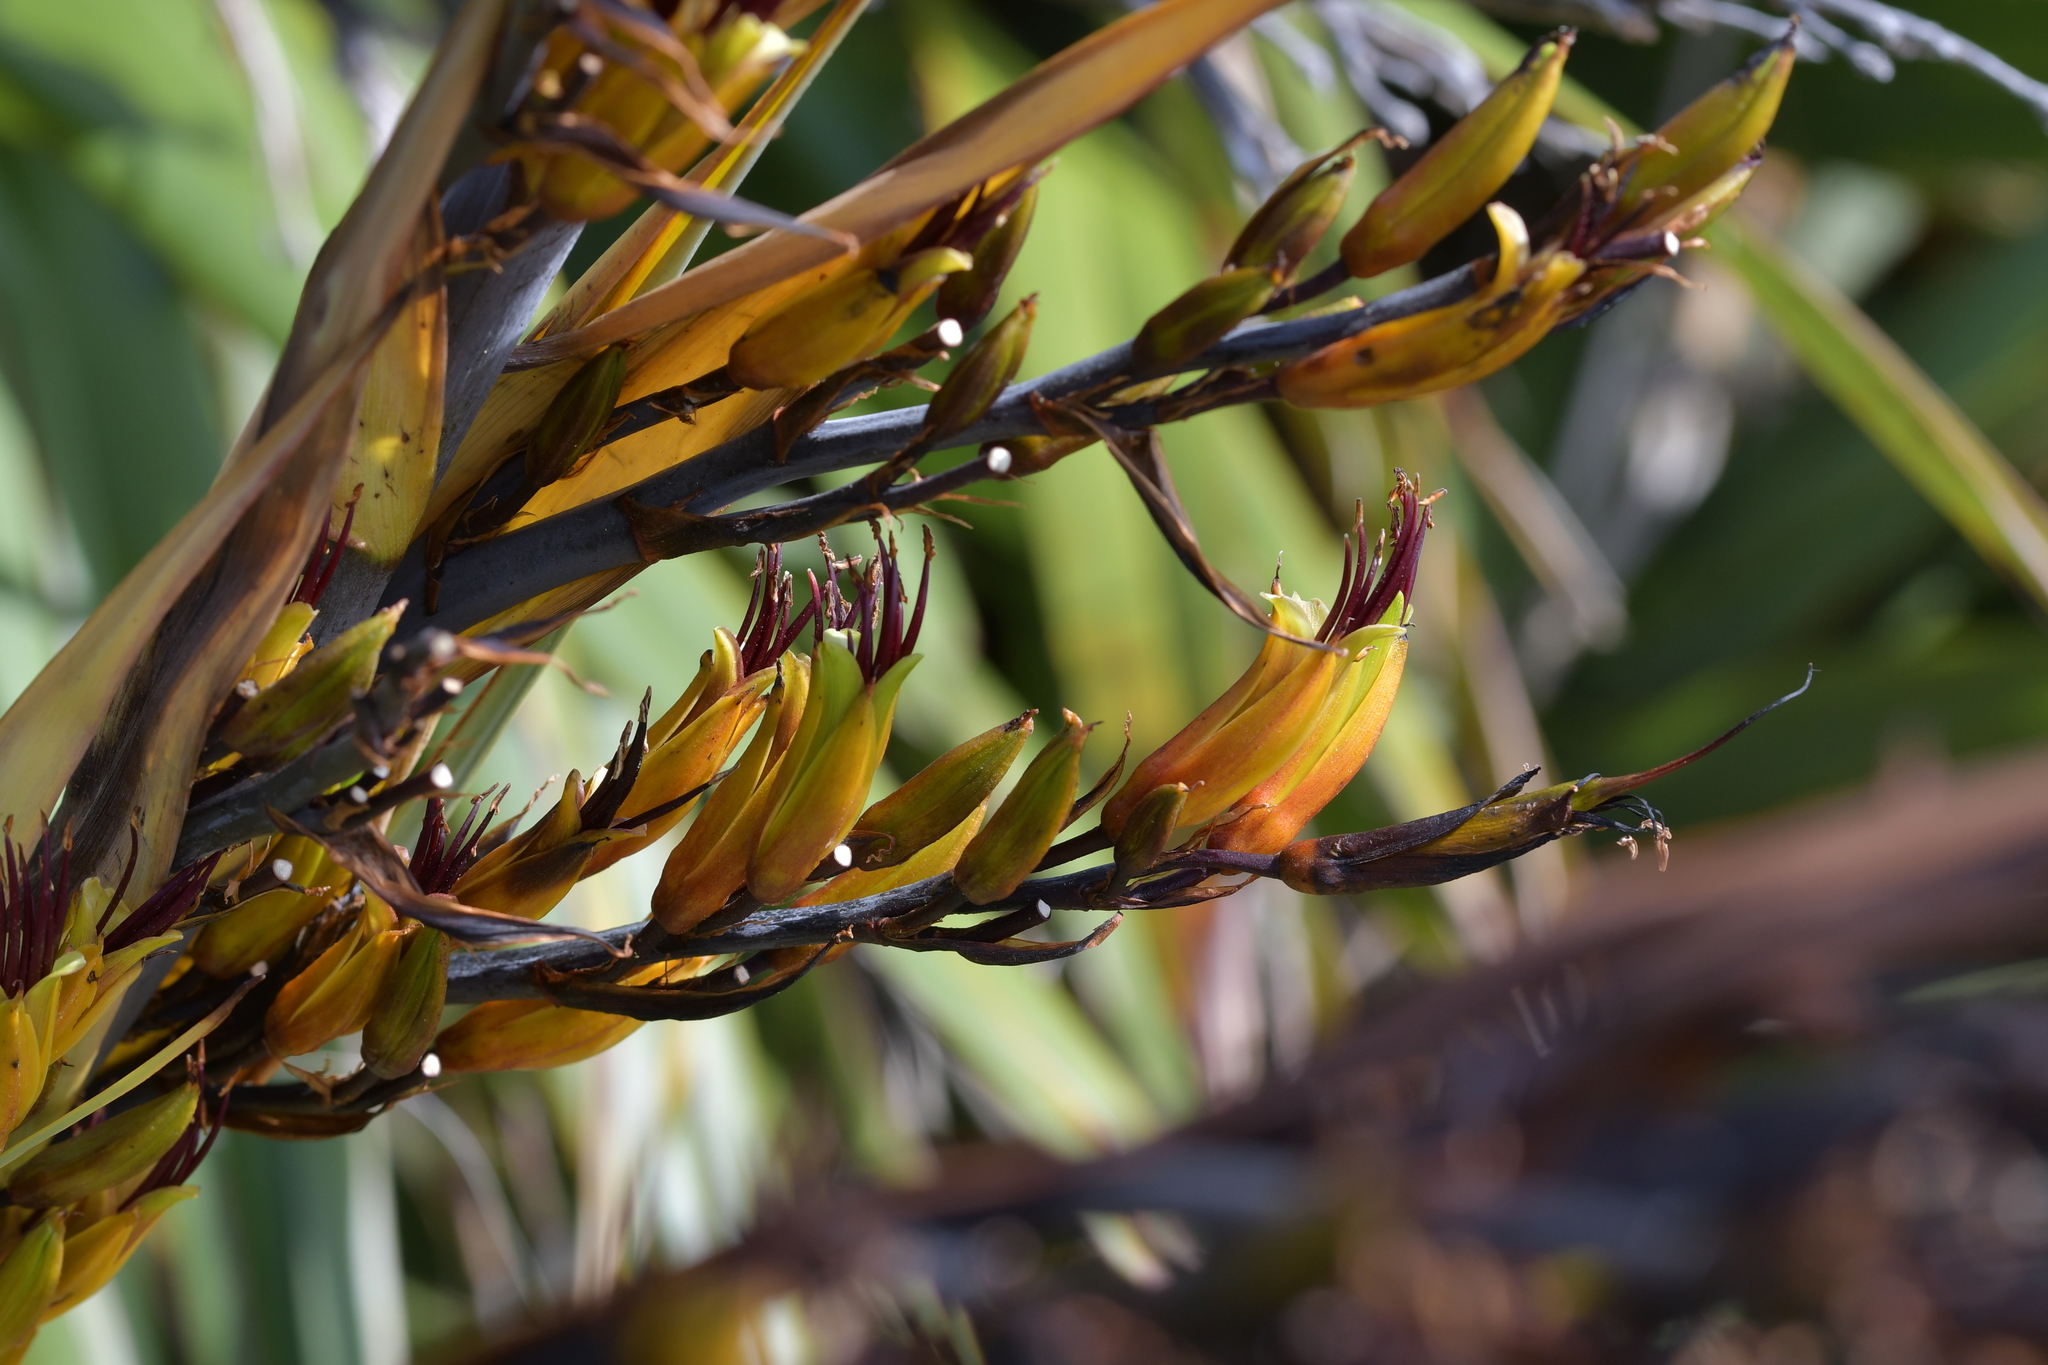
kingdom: Plantae
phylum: Tracheophyta
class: Liliopsida
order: Asparagales
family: Asphodelaceae
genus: Phormium
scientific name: Phormium colensoi
